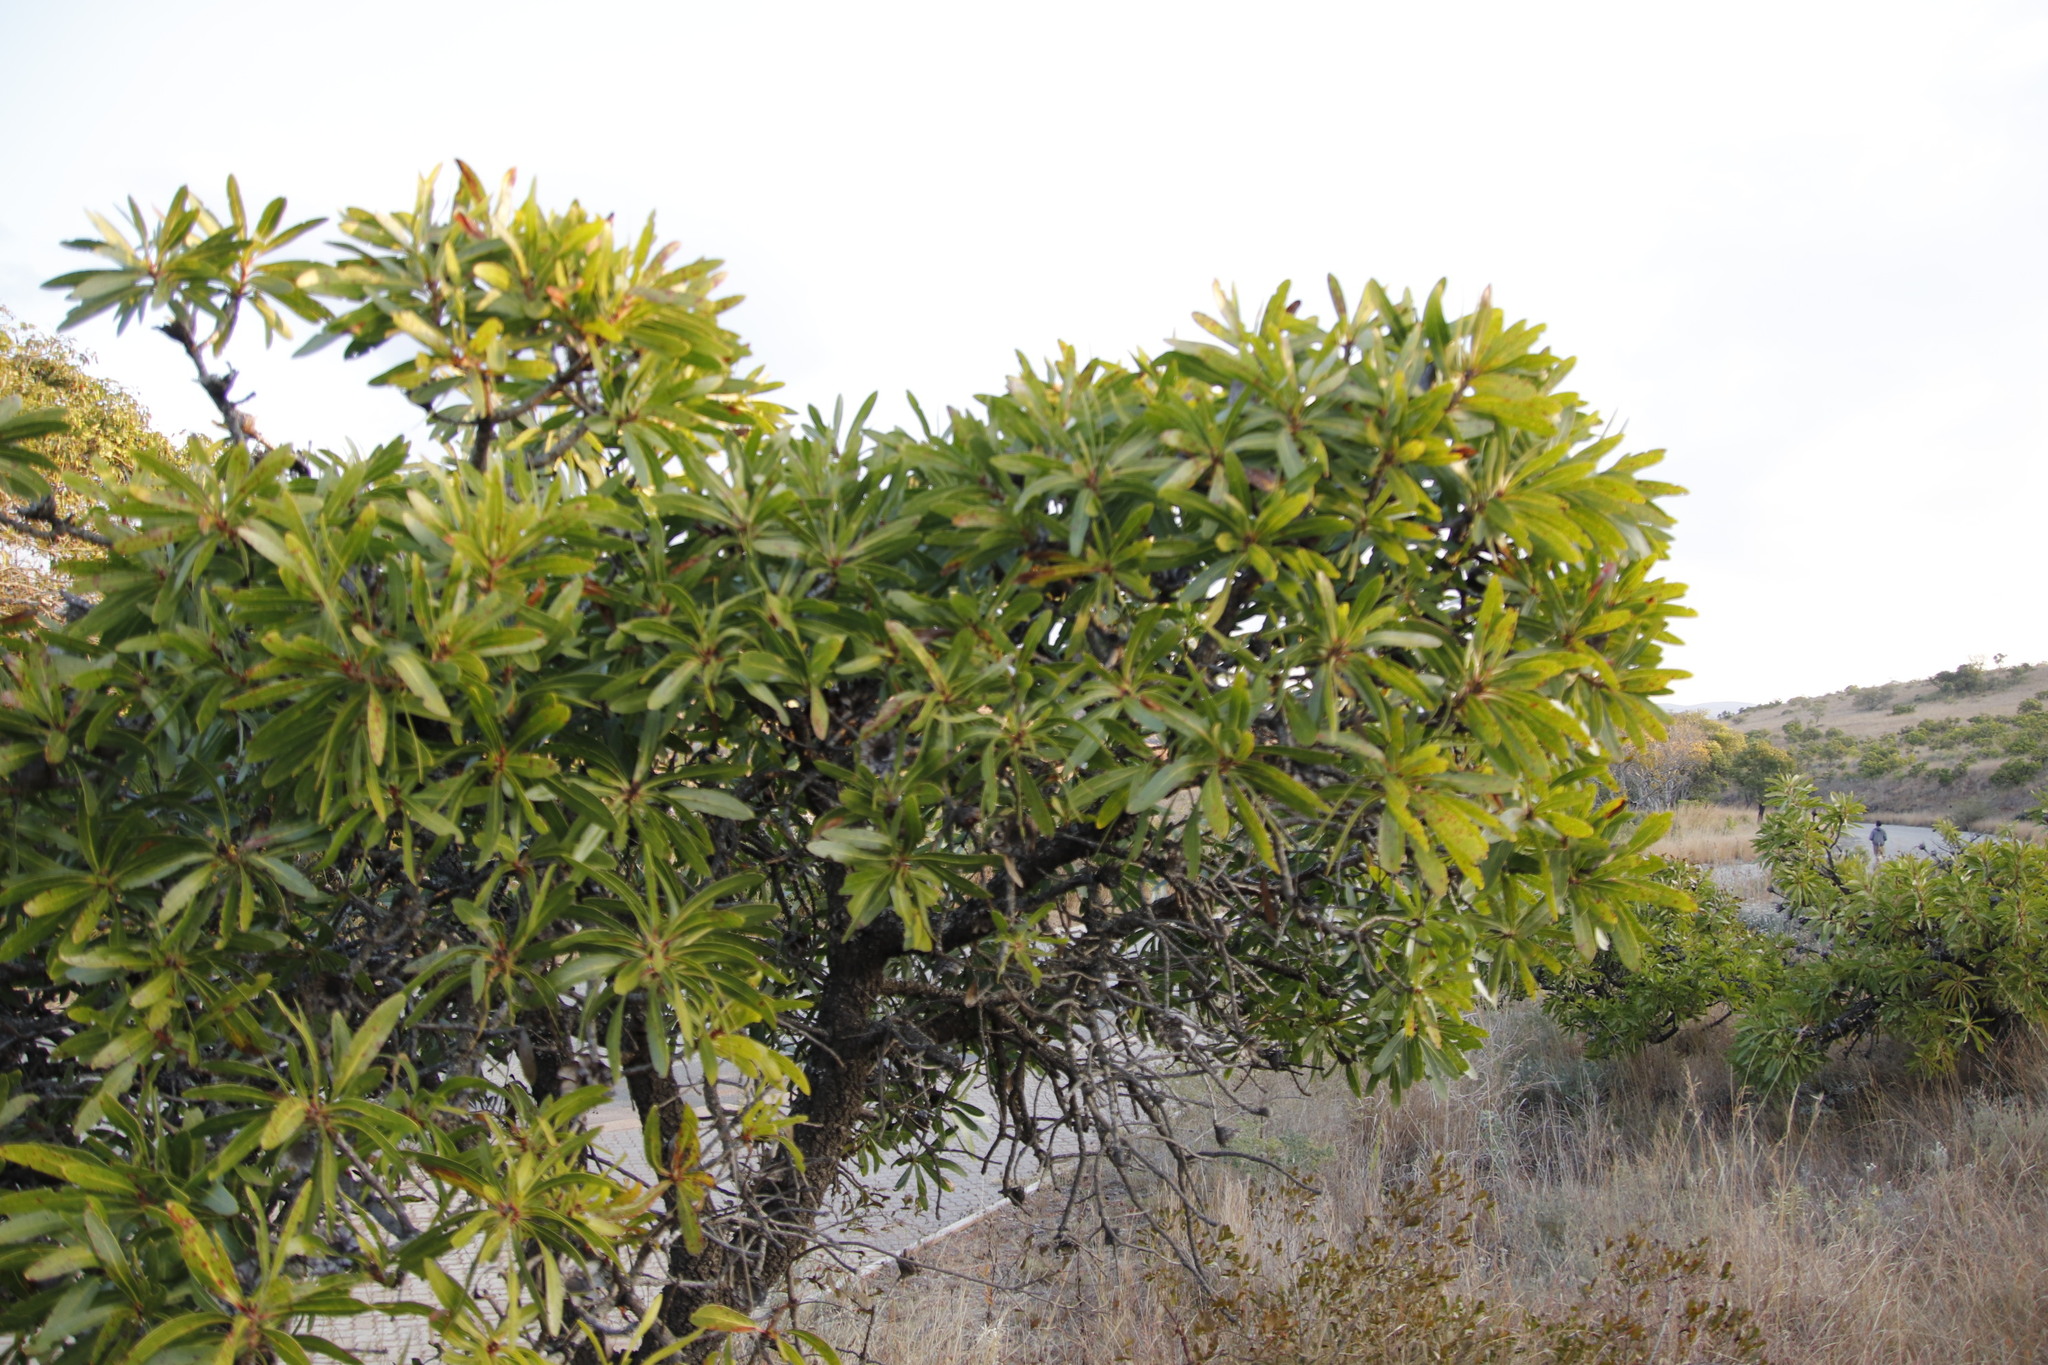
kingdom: Plantae
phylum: Tracheophyta
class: Magnoliopsida
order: Proteales
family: Proteaceae
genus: Protea
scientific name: Protea rubropilosa
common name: Escarpment sugarbush
